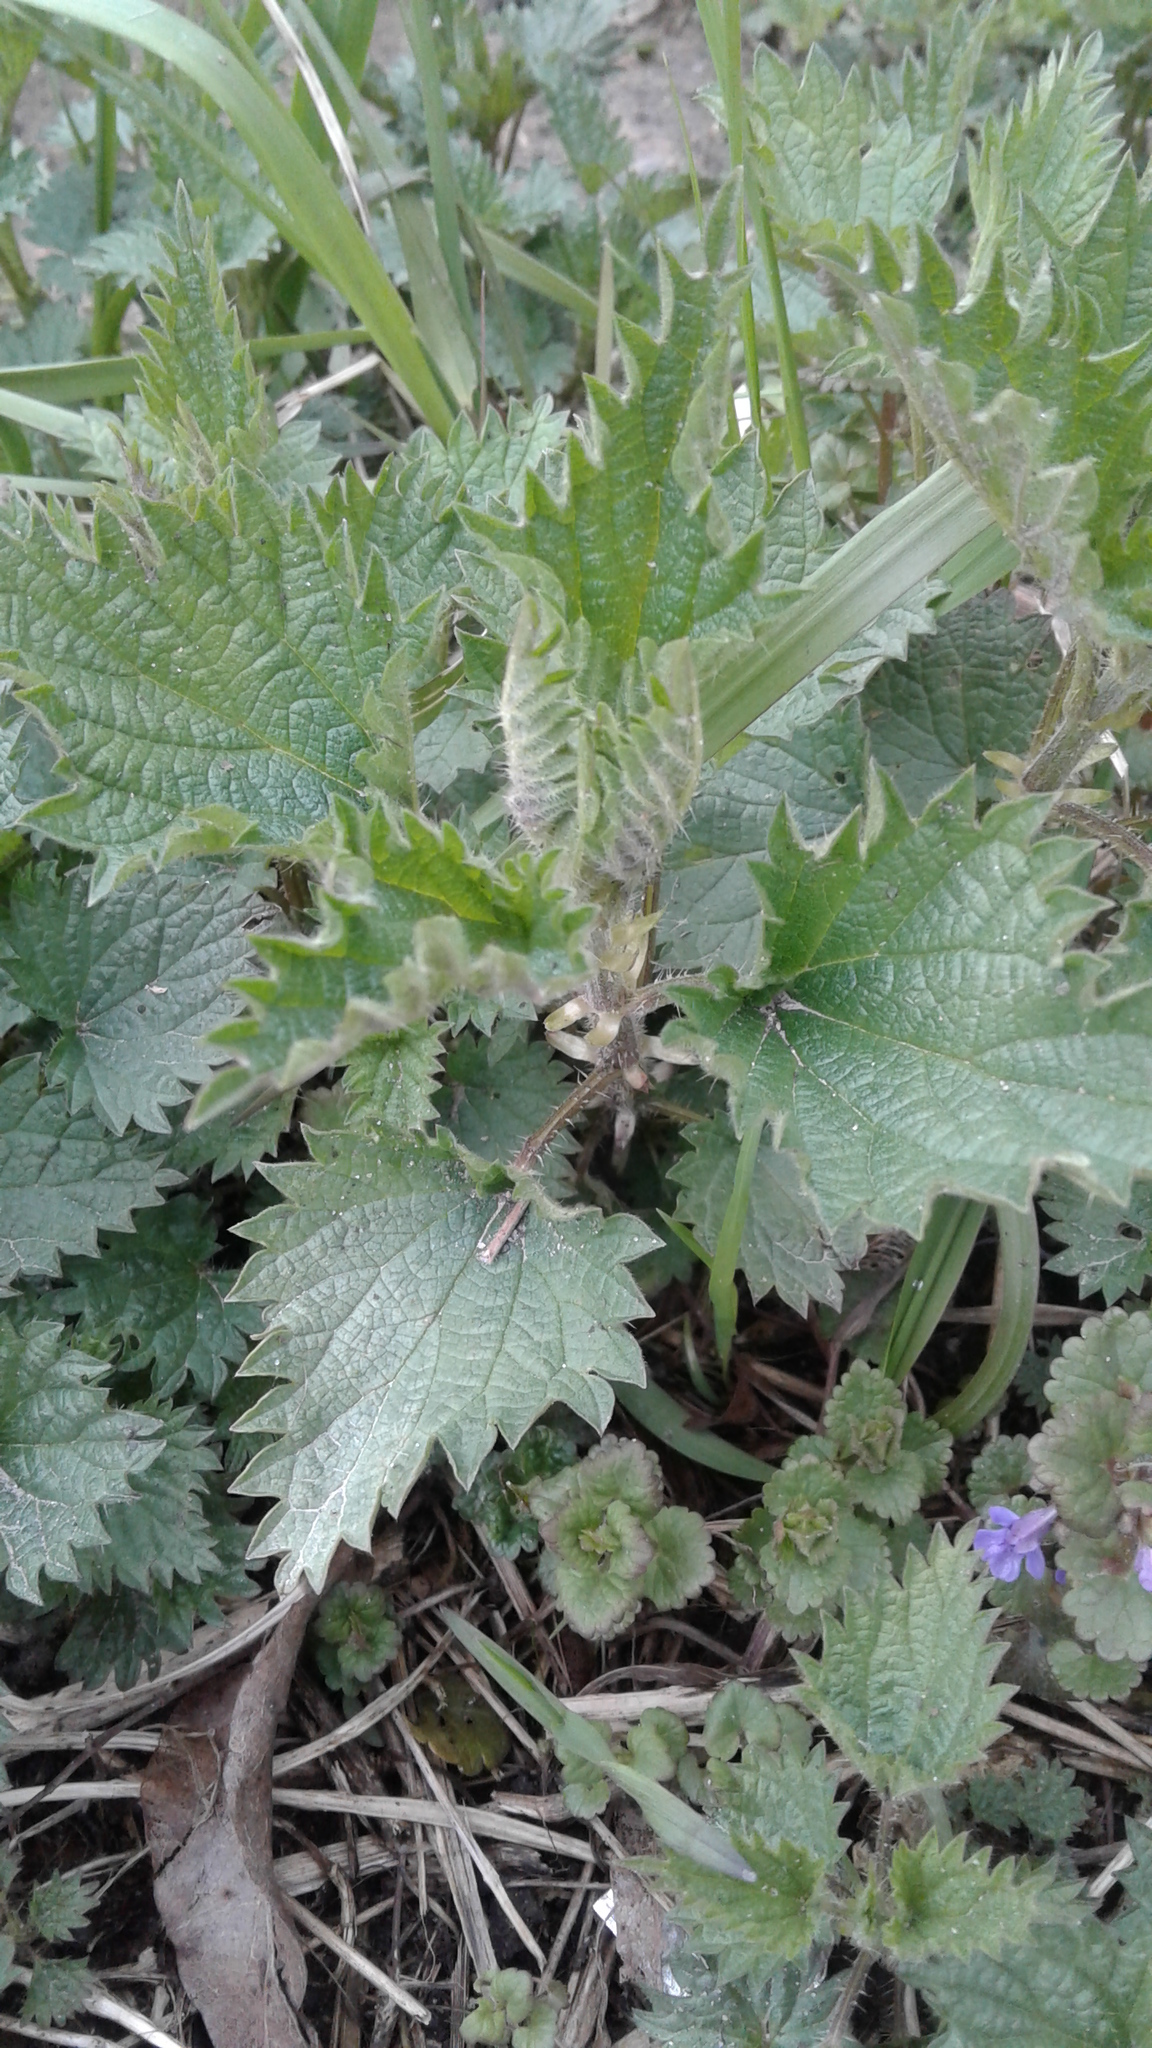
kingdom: Plantae
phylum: Tracheophyta
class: Magnoliopsida
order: Rosales
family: Urticaceae
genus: Urtica
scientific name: Urtica dioica
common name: Common nettle
